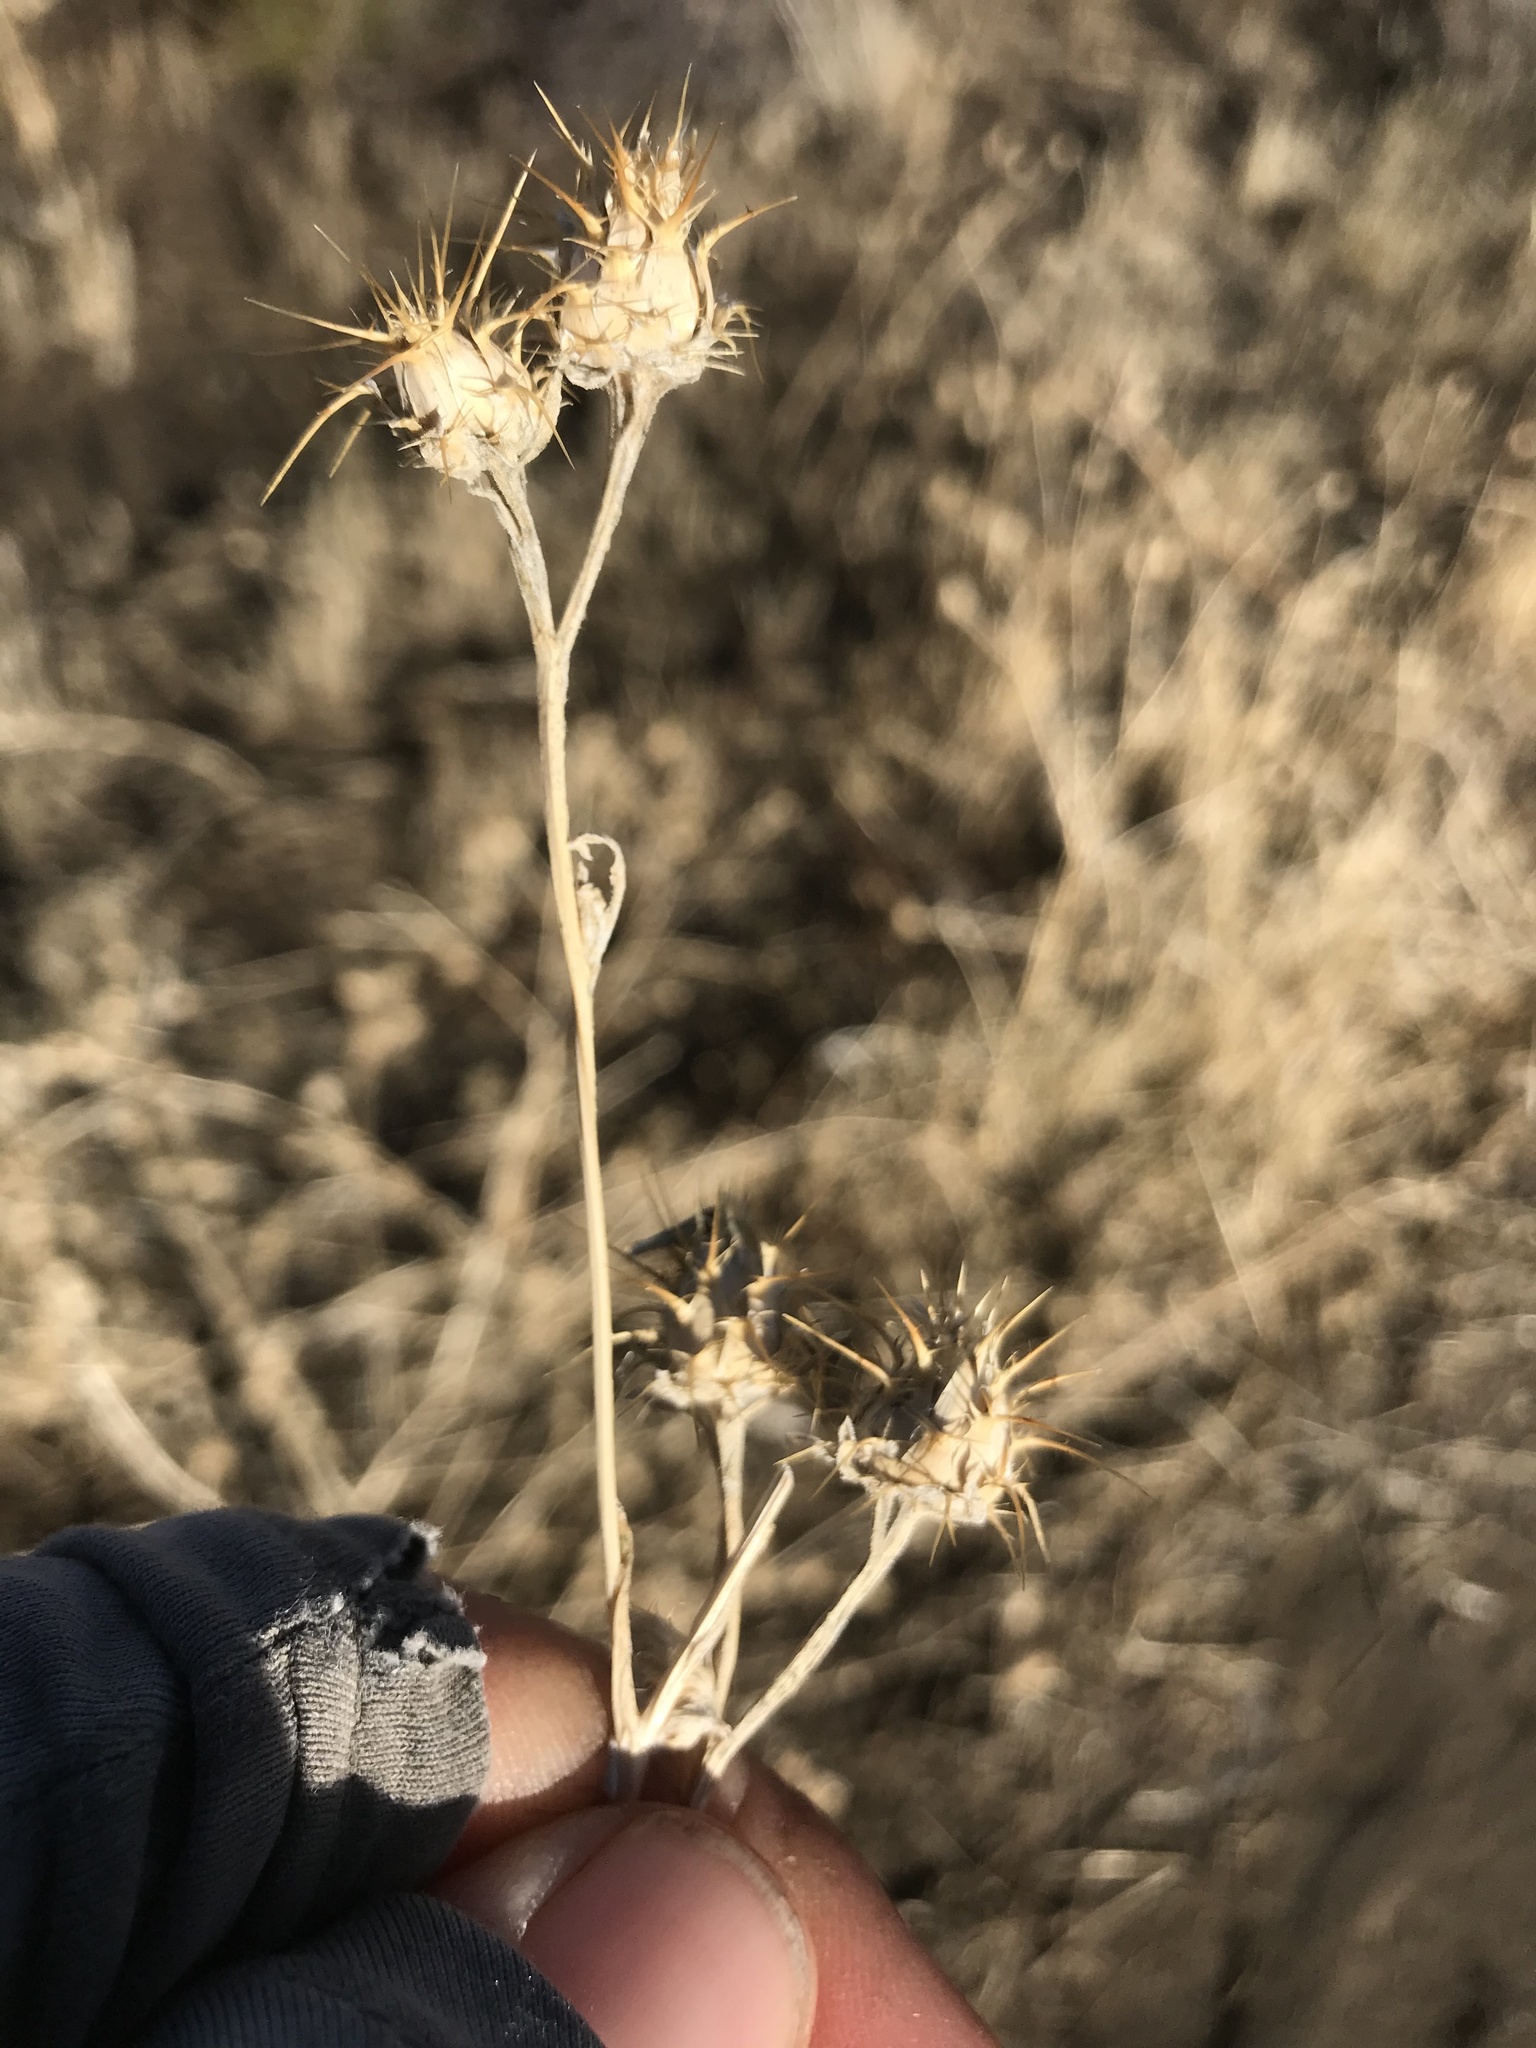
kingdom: Plantae
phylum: Tracheophyta
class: Magnoliopsida
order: Asterales
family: Asteraceae
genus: Centaurea
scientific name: Centaurea melitensis
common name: Maltese star-thistle
